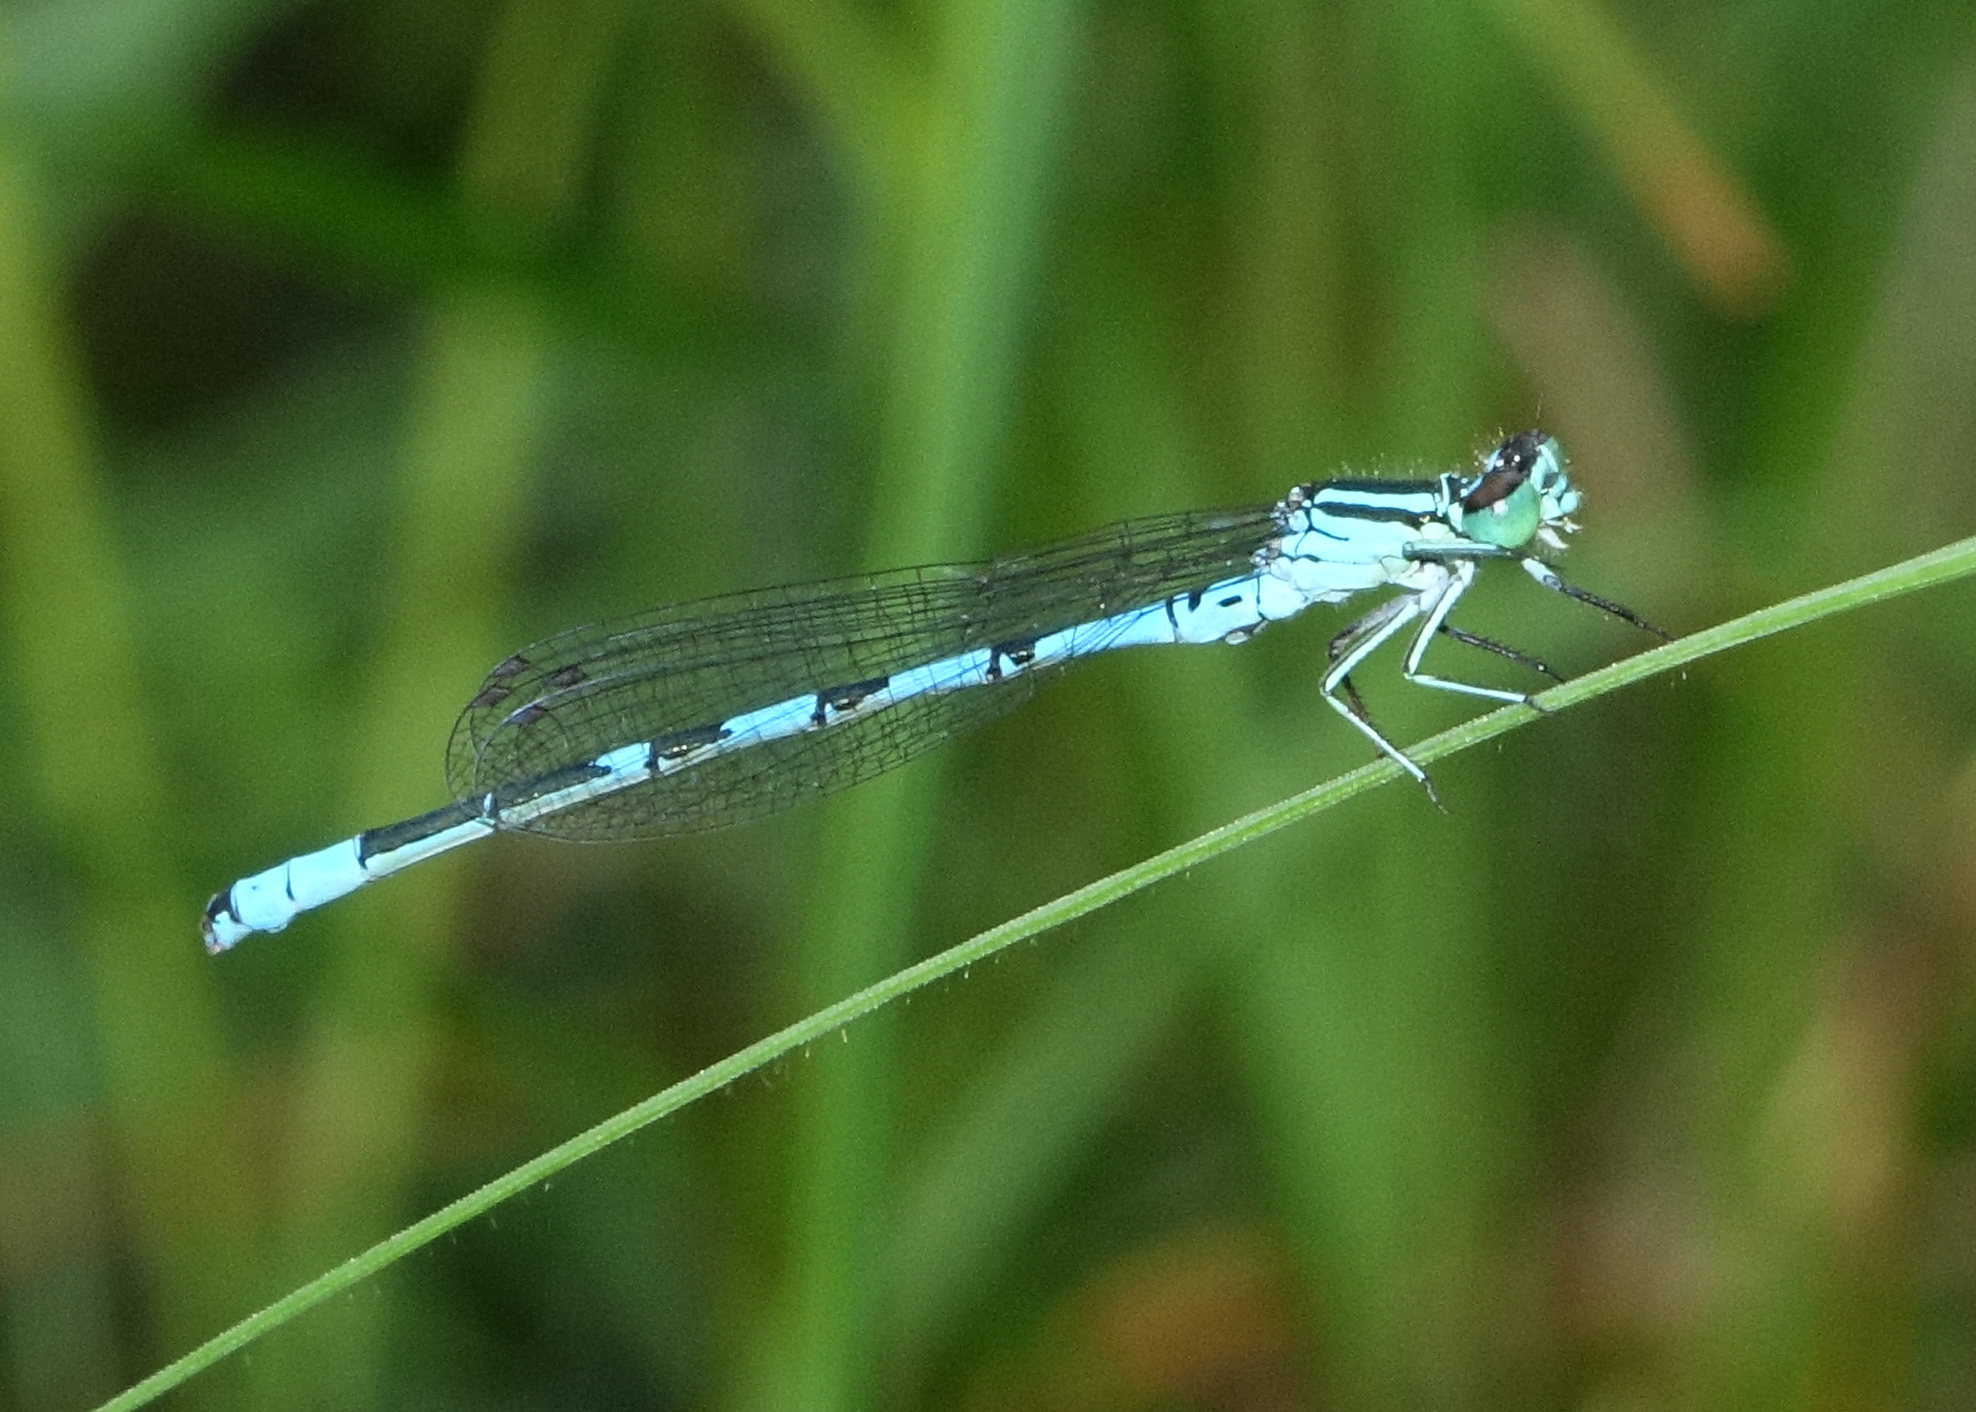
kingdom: Animalia
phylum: Arthropoda
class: Insecta
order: Odonata
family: Coenagrionidae
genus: Coenagrion
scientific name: Coenagrion hastulatum
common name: Spearhead bluet
